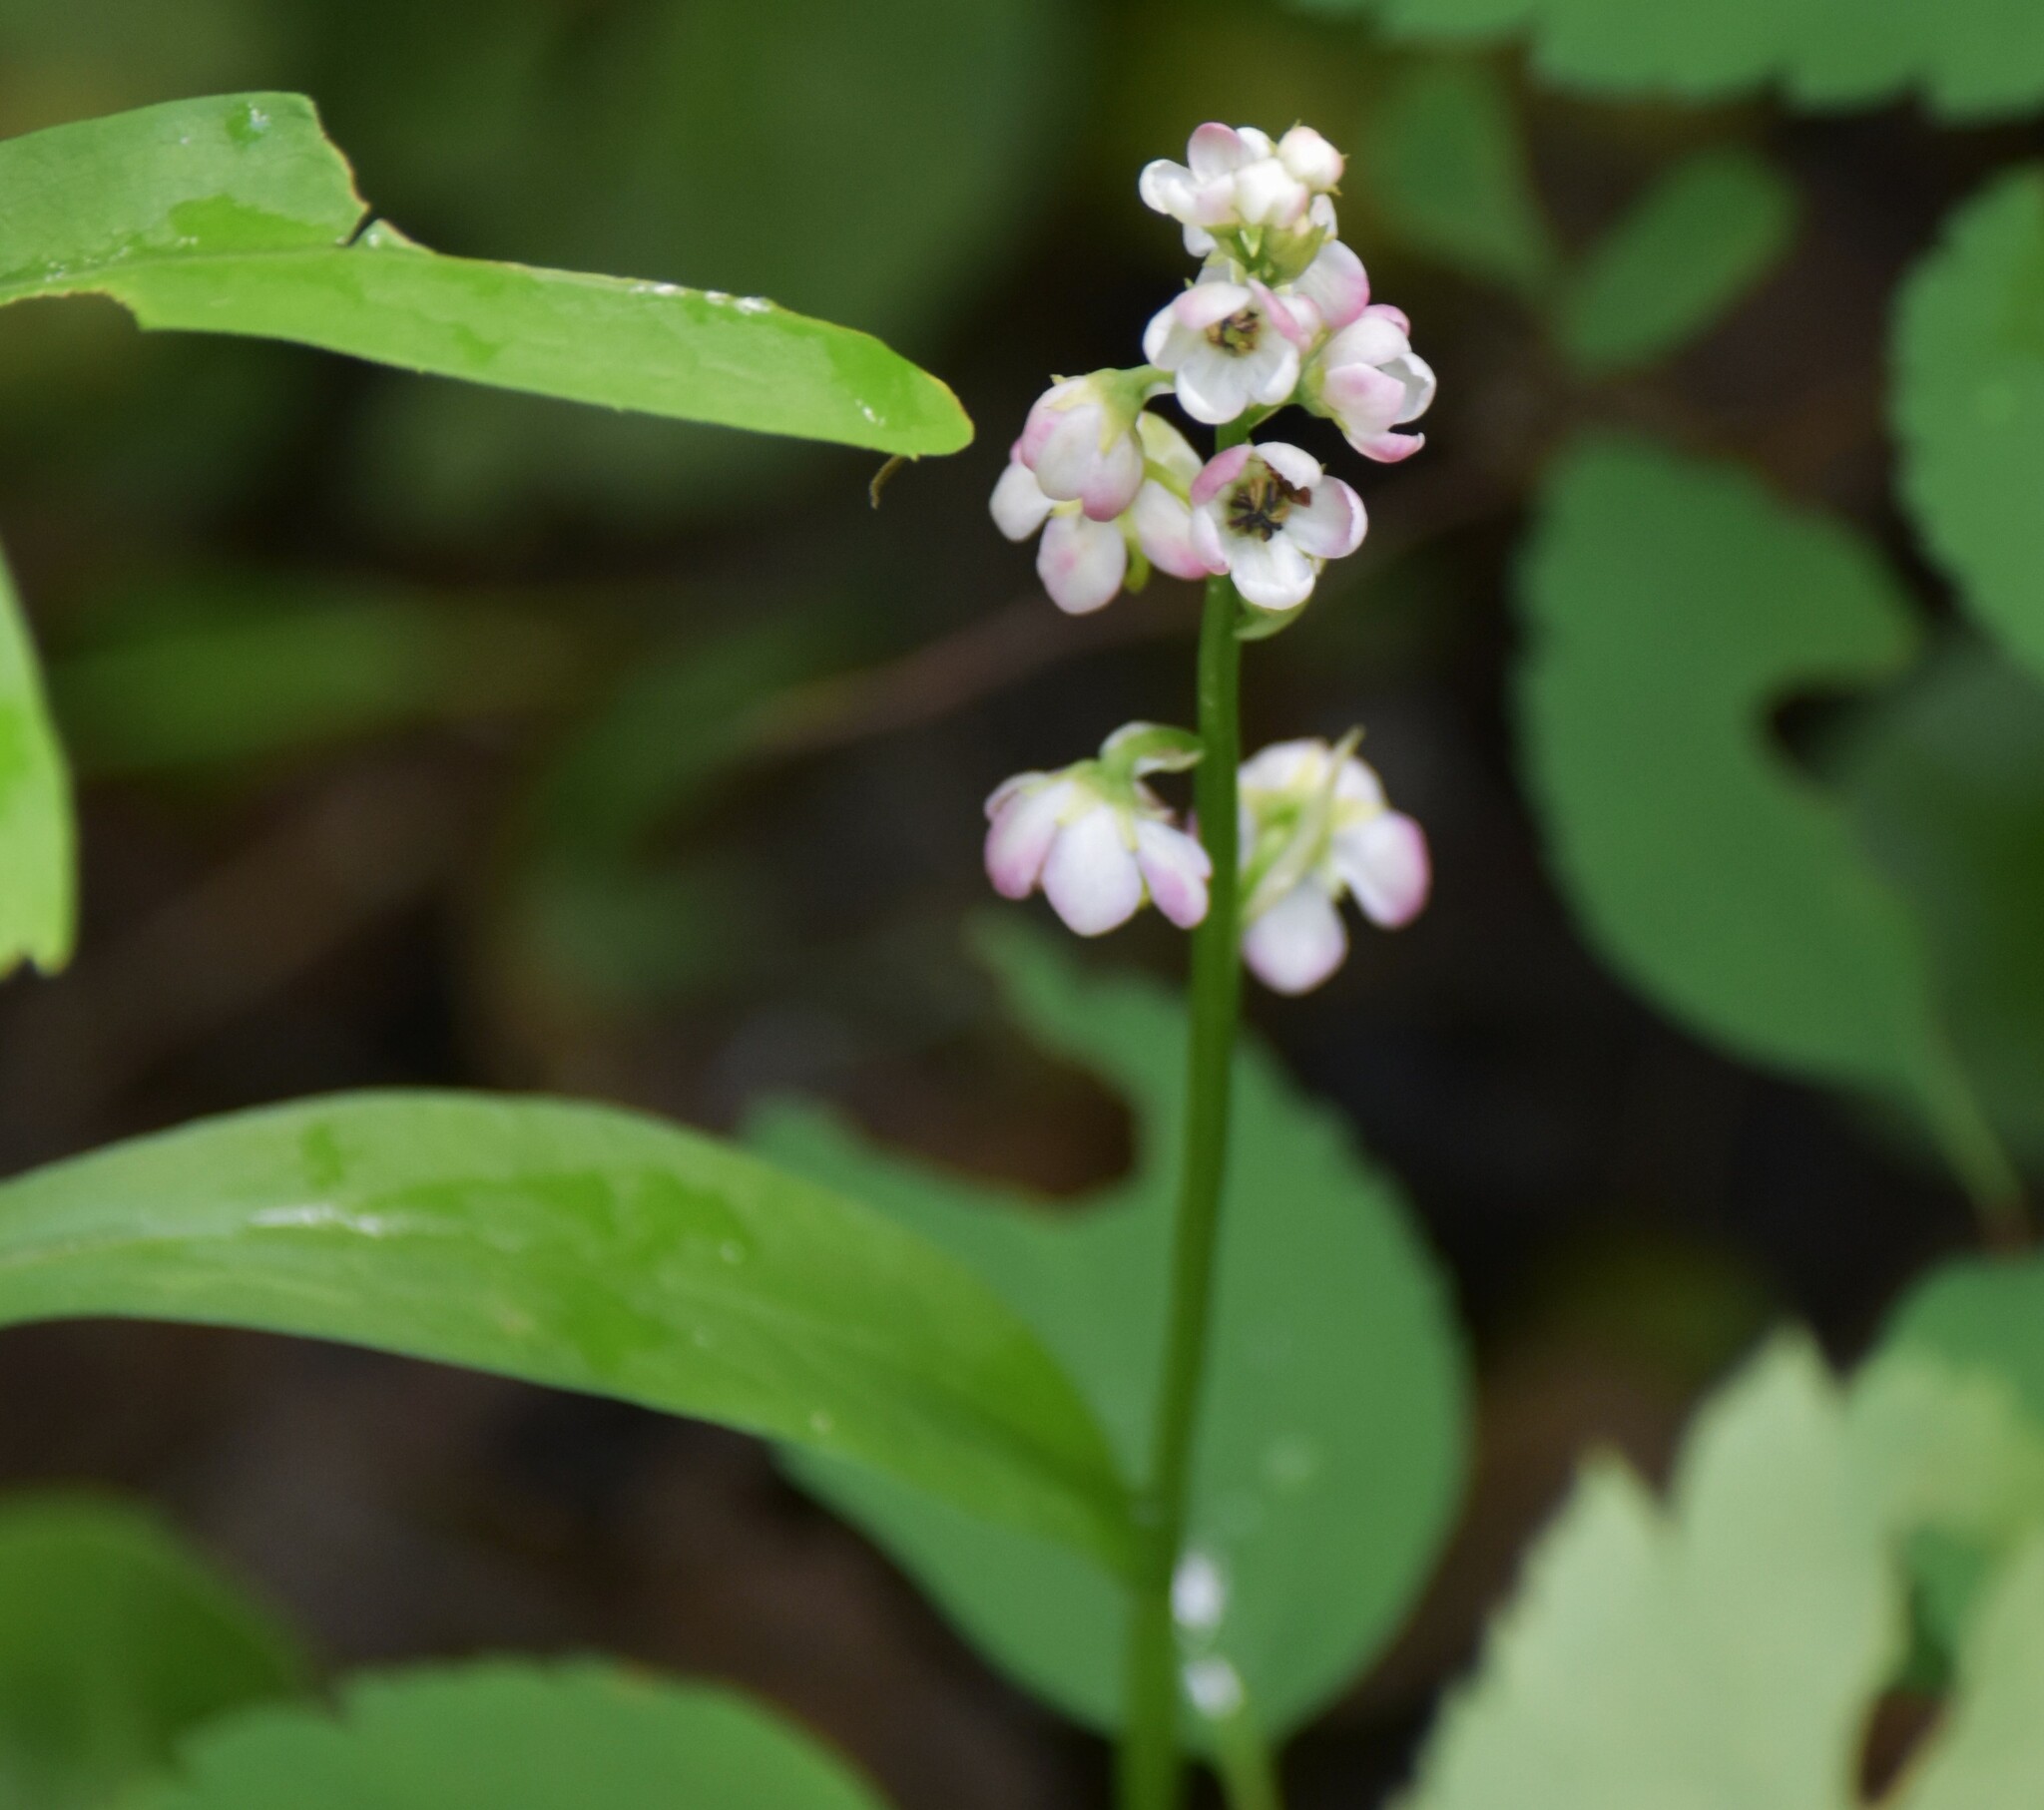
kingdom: Plantae
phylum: Tracheophyta
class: Magnoliopsida
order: Ericales
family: Ericaceae
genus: Pyrola
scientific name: Pyrola asarifolia
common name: Bog wintergreen
